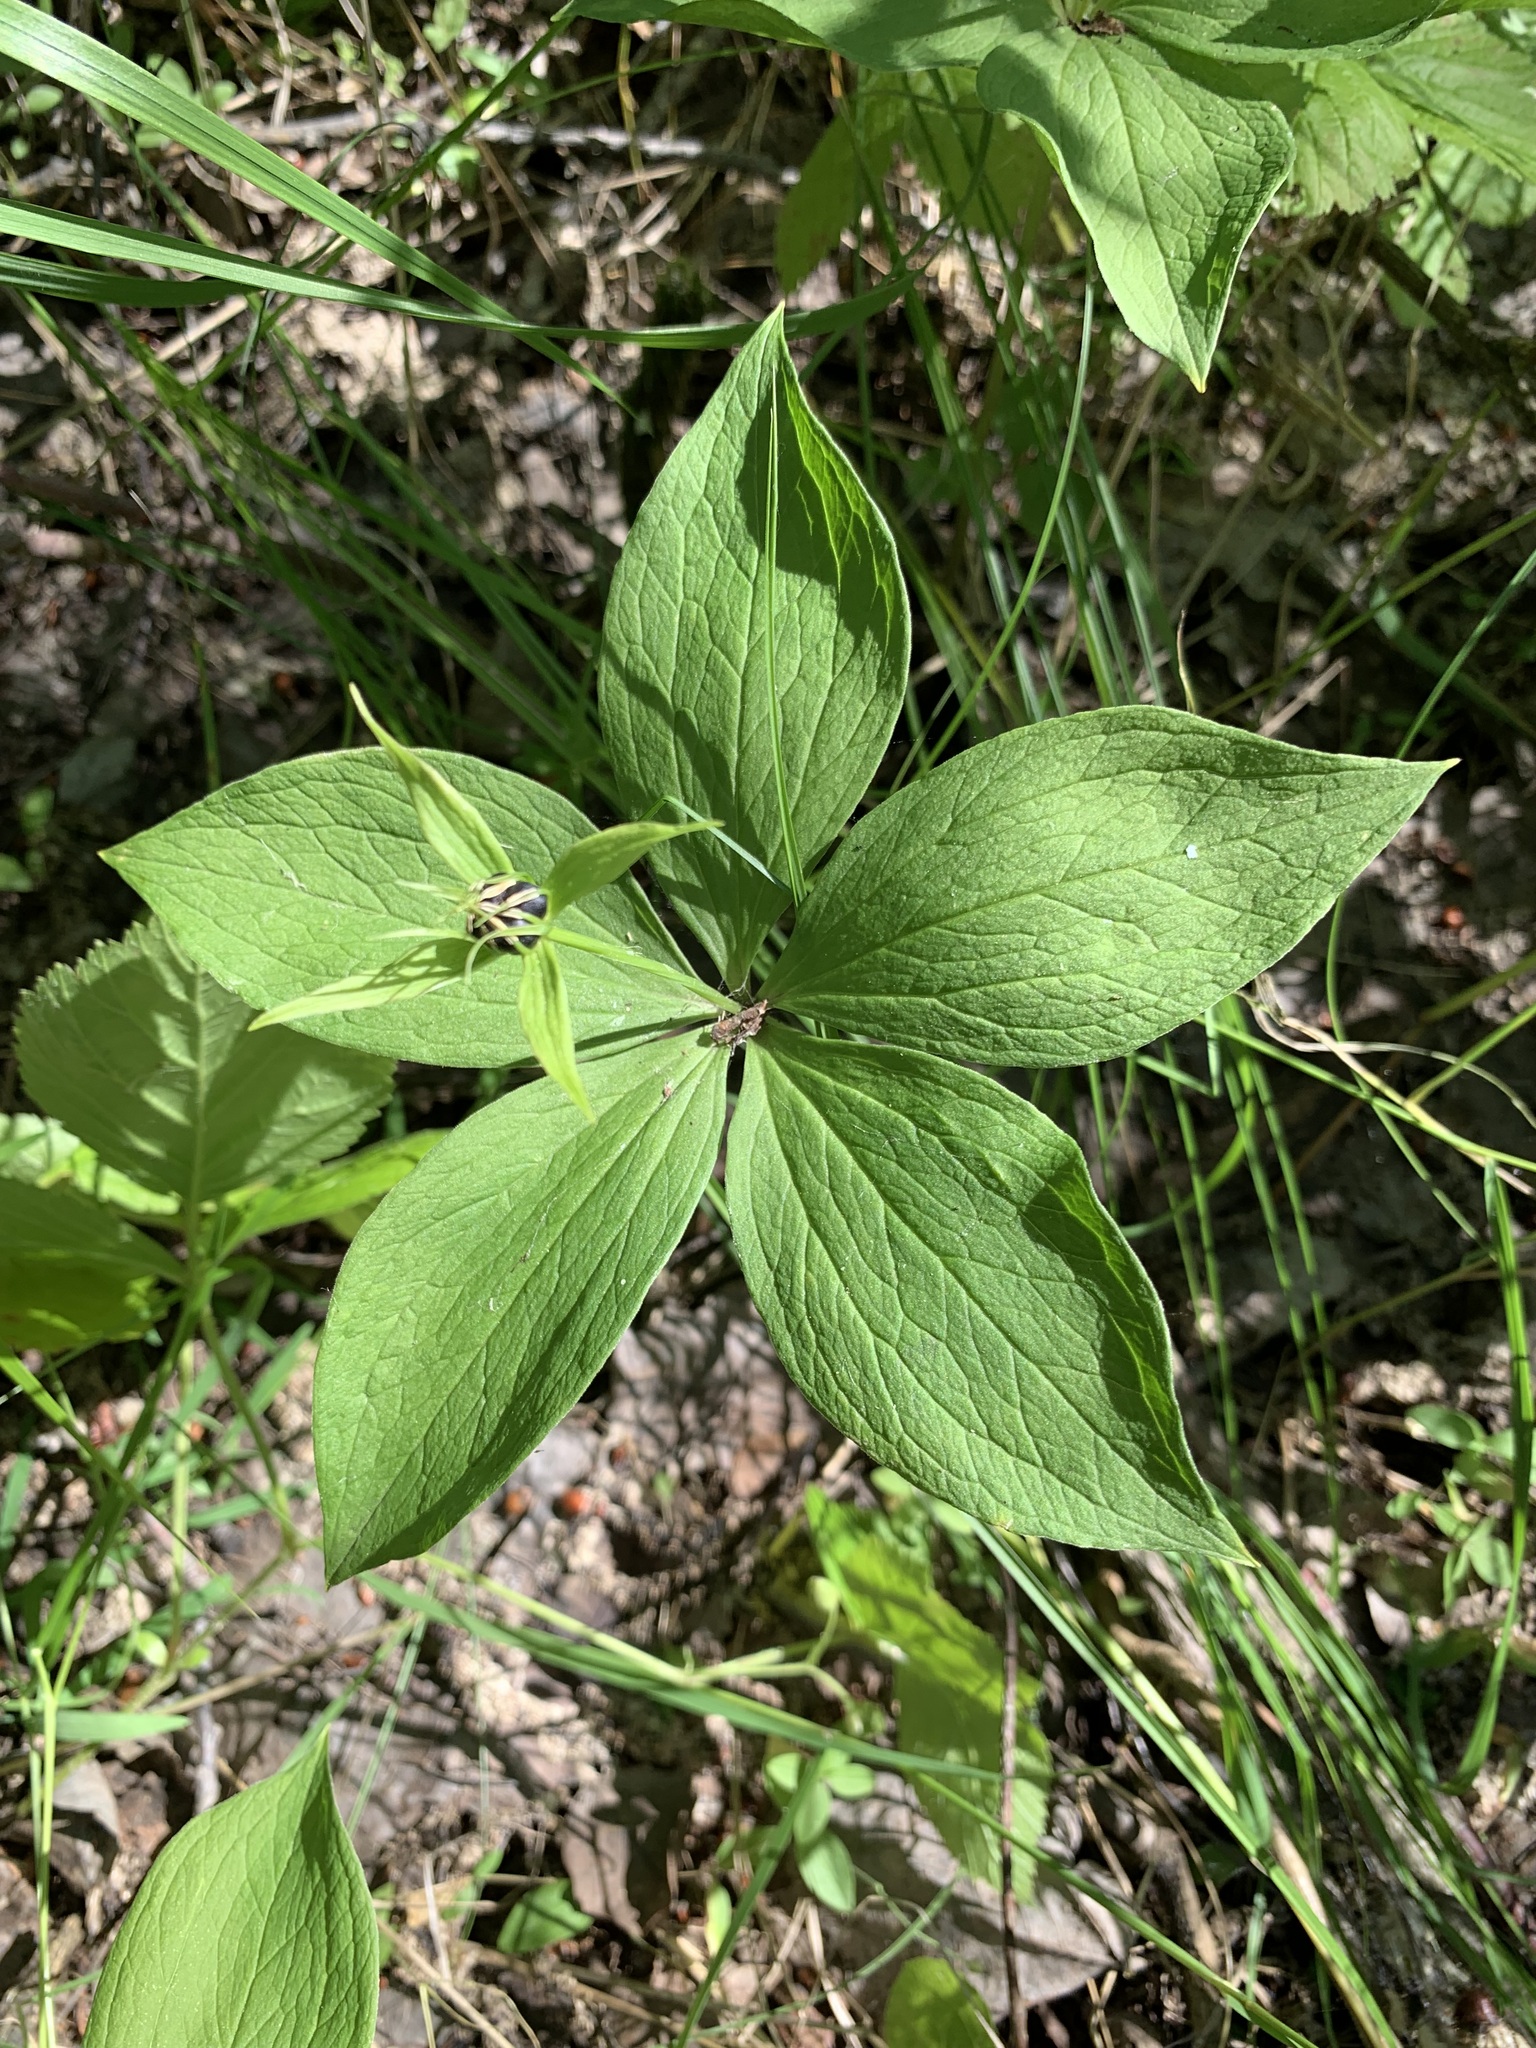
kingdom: Plantae
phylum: Tracheophyta
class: Liliopsida
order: Liliales
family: Melanthiaceae
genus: Paris
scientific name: Paris quadrifolia
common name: Herb-paris
